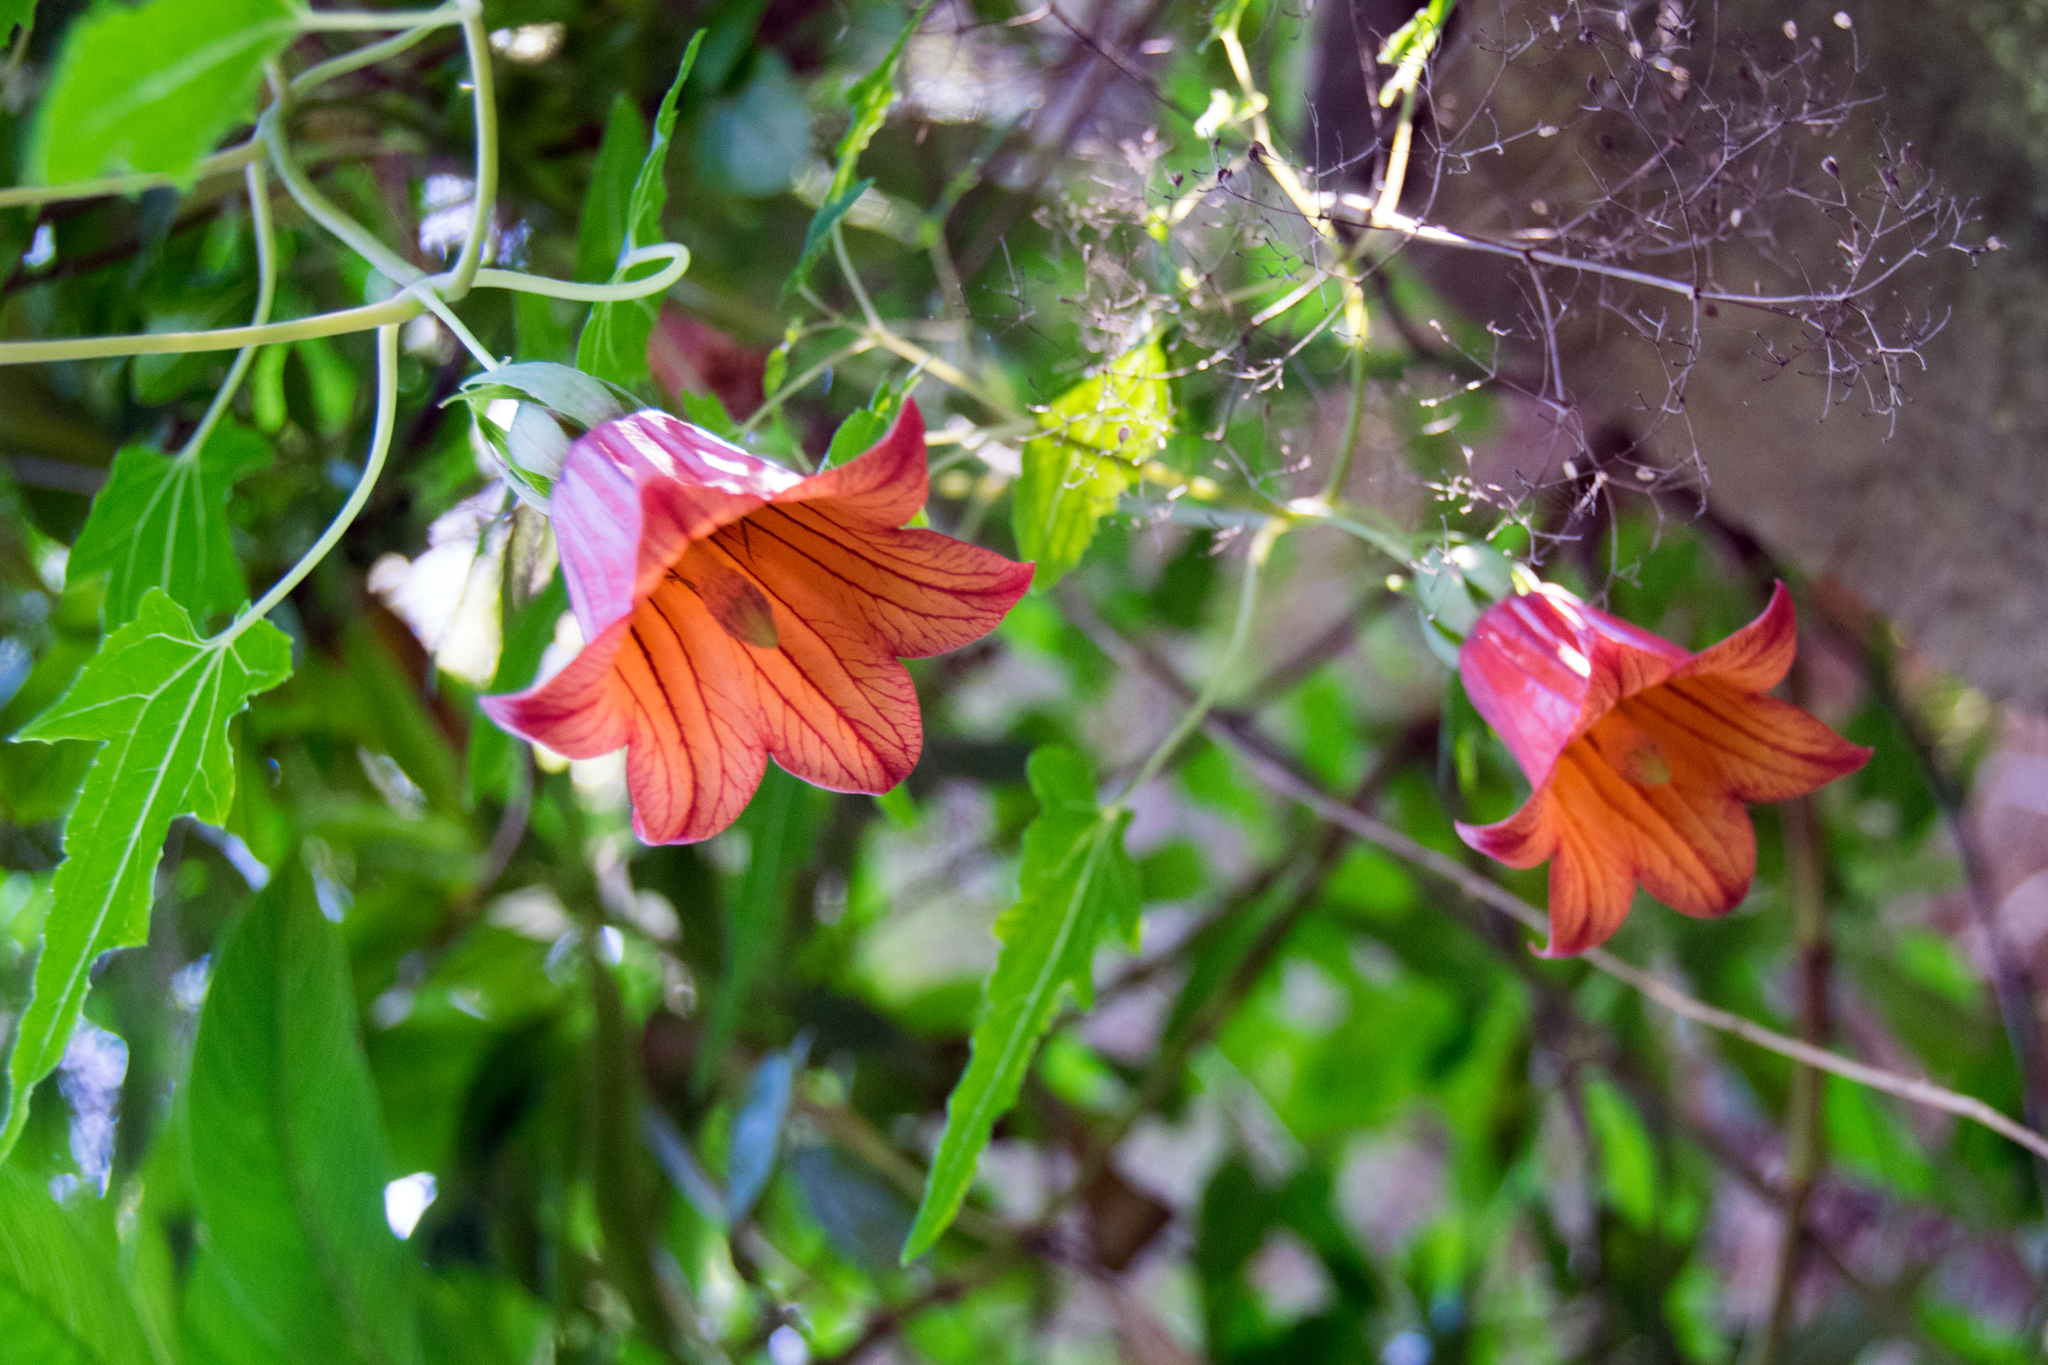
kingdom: Plantae
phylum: Tracheophyta
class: Magnoliopsida
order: Asterales
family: Campanulaceae
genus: Canarina
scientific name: Canarina canariensis
